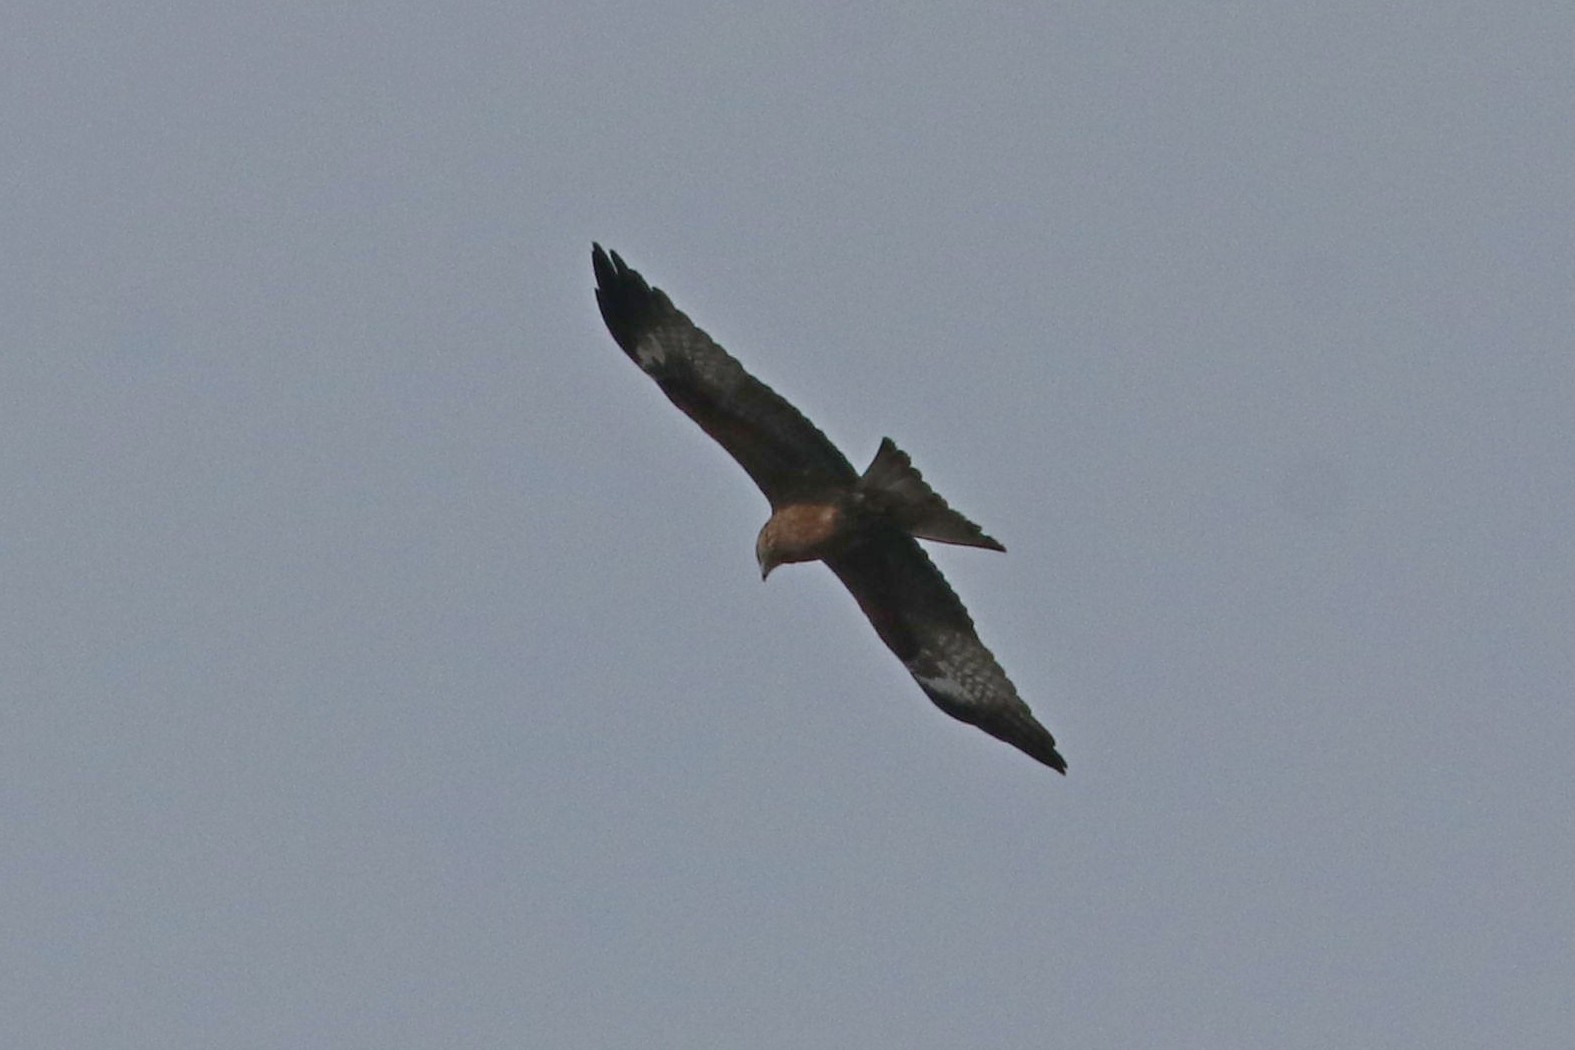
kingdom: Animalia
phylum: Chordata
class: Aves
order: Accipitriformes
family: Accipitridae
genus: Milvus
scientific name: Milvus migrans
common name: Black kite
